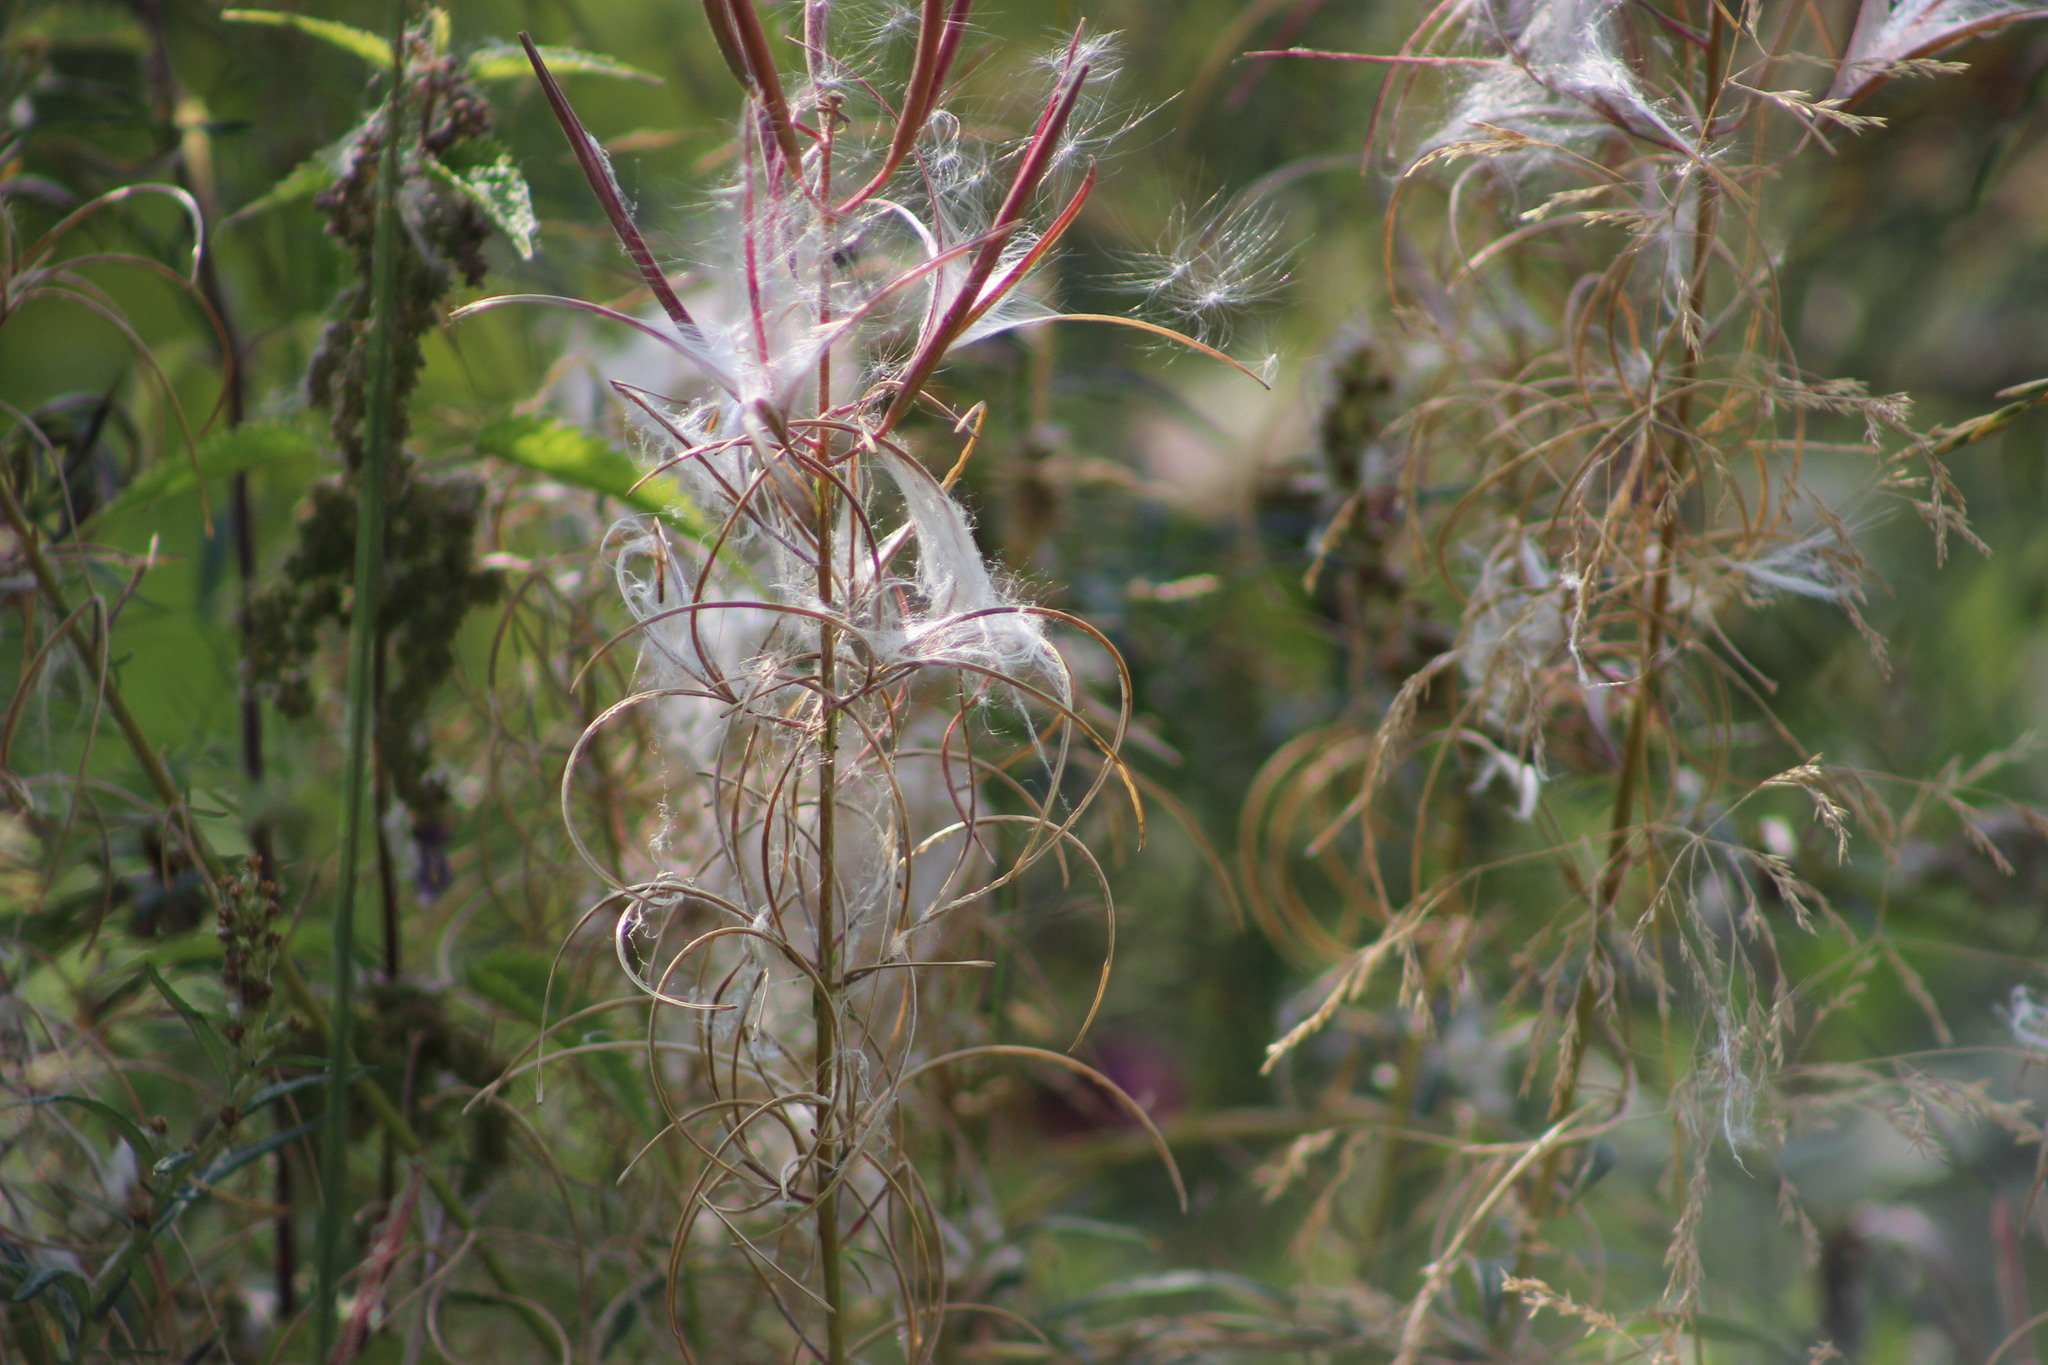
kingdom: Plantae
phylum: Tracheophyta
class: Magnoliopsida
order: Myrtales
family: Onagraceae
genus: Chamaenerion
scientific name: Chamaenerion angustifolium
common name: Fireweed
